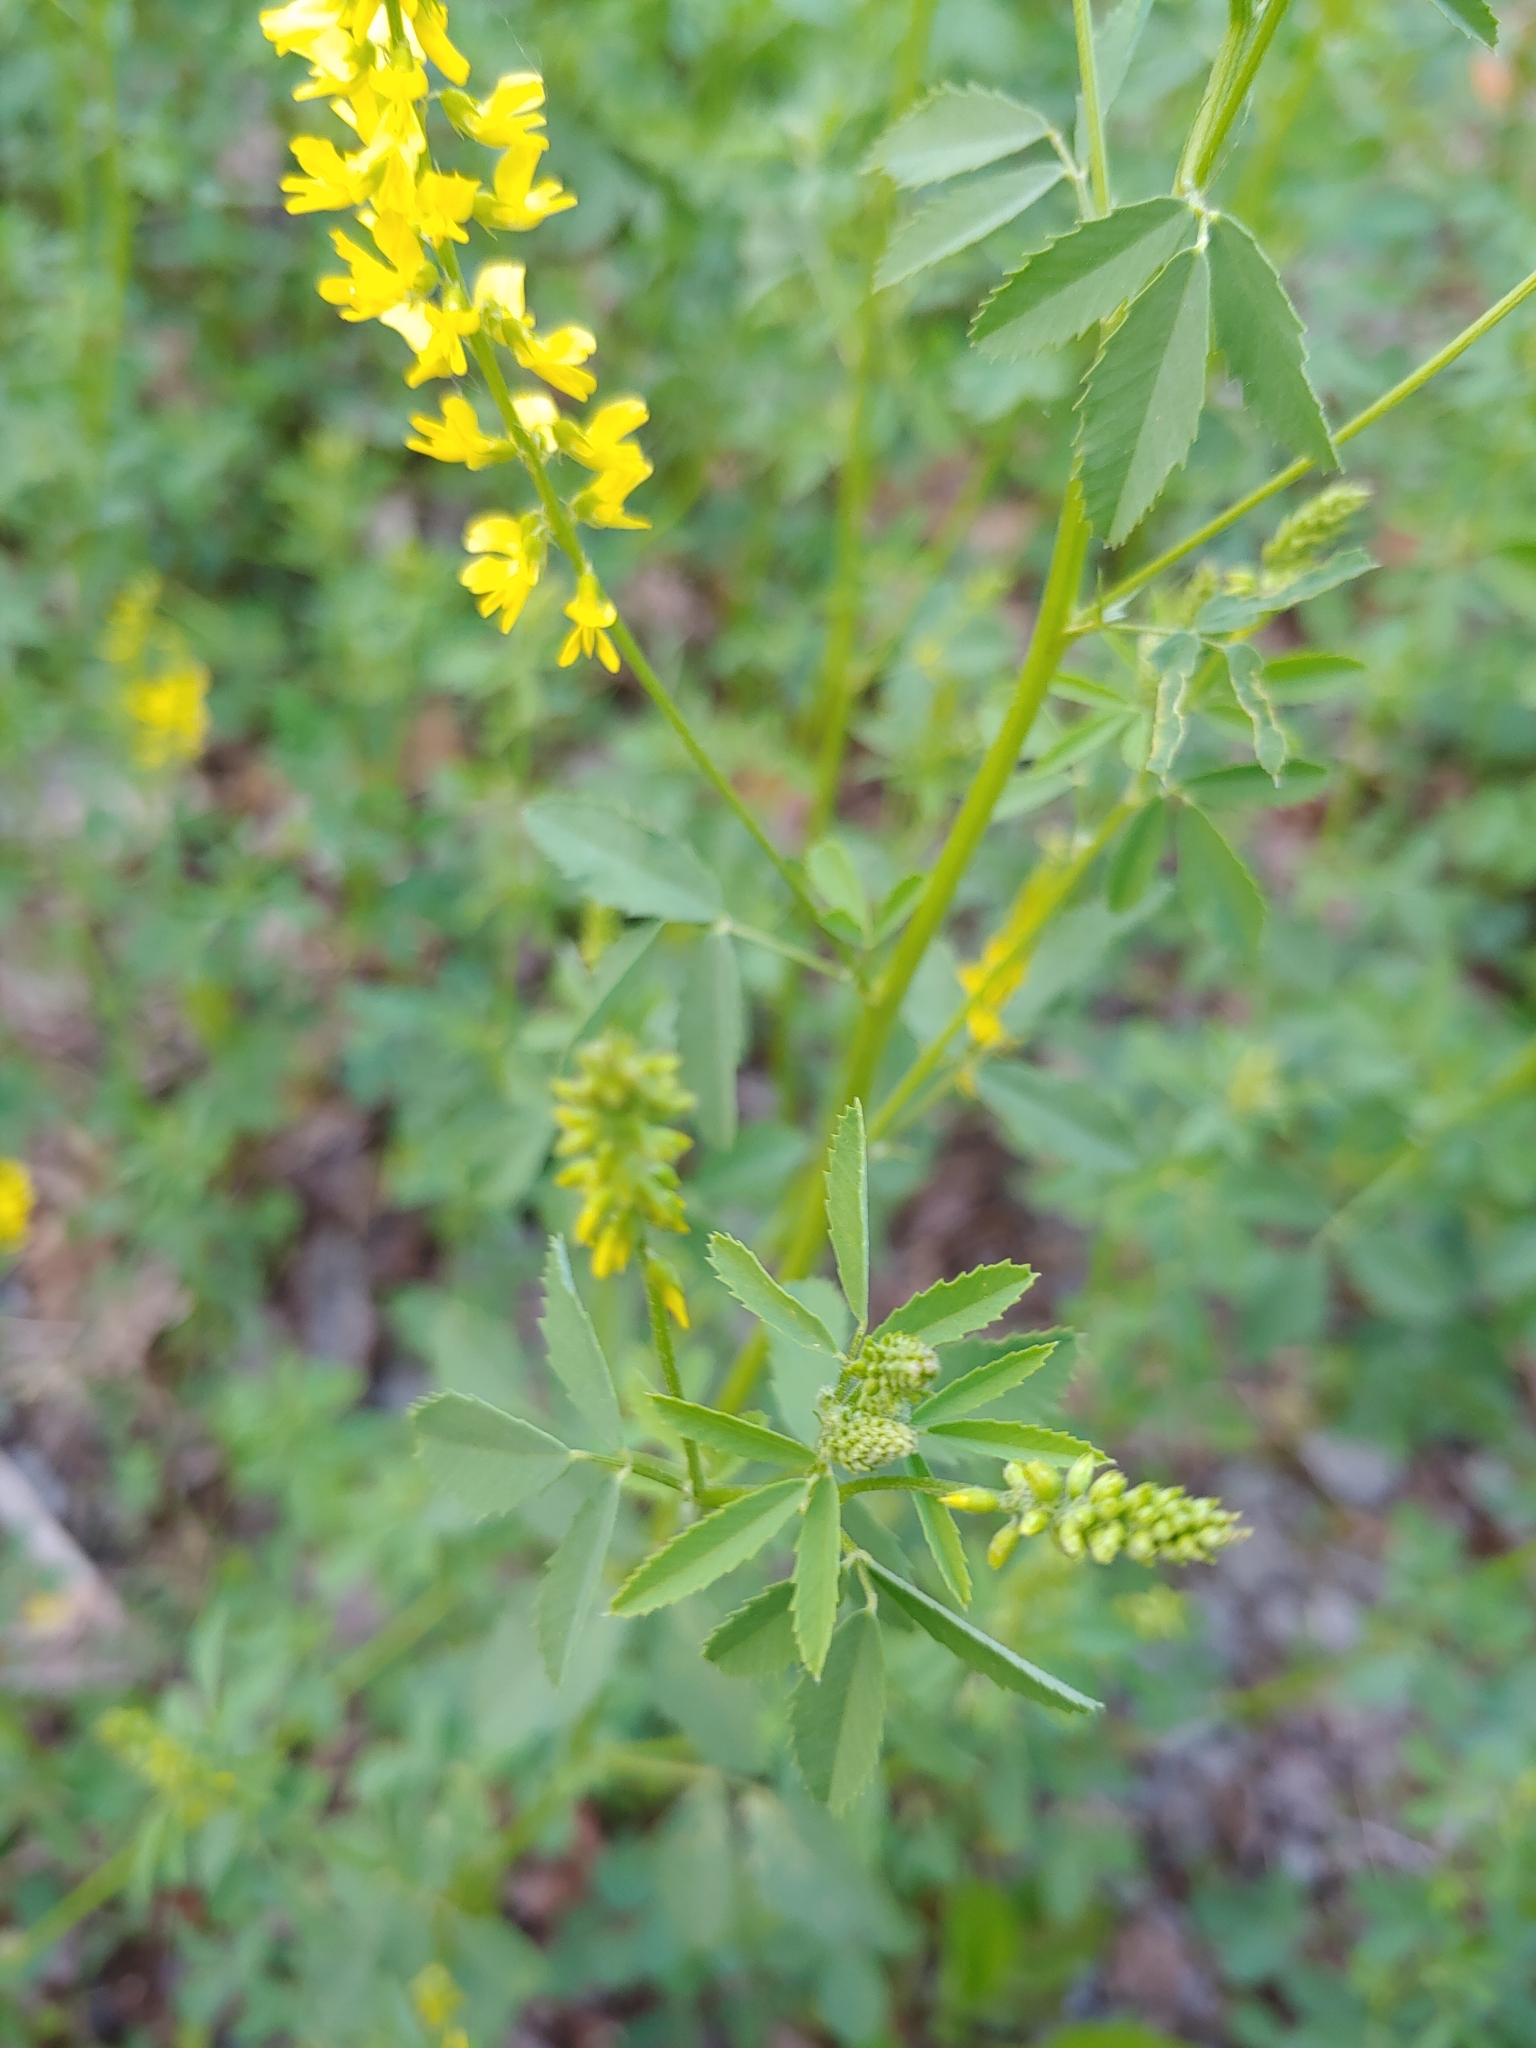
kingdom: Plantae
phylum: Tracheophyta
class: Magnoliopsida
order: Fabales
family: Fabaceae
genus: Melilotus
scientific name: Melilotus officinalis
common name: Sweetclover
